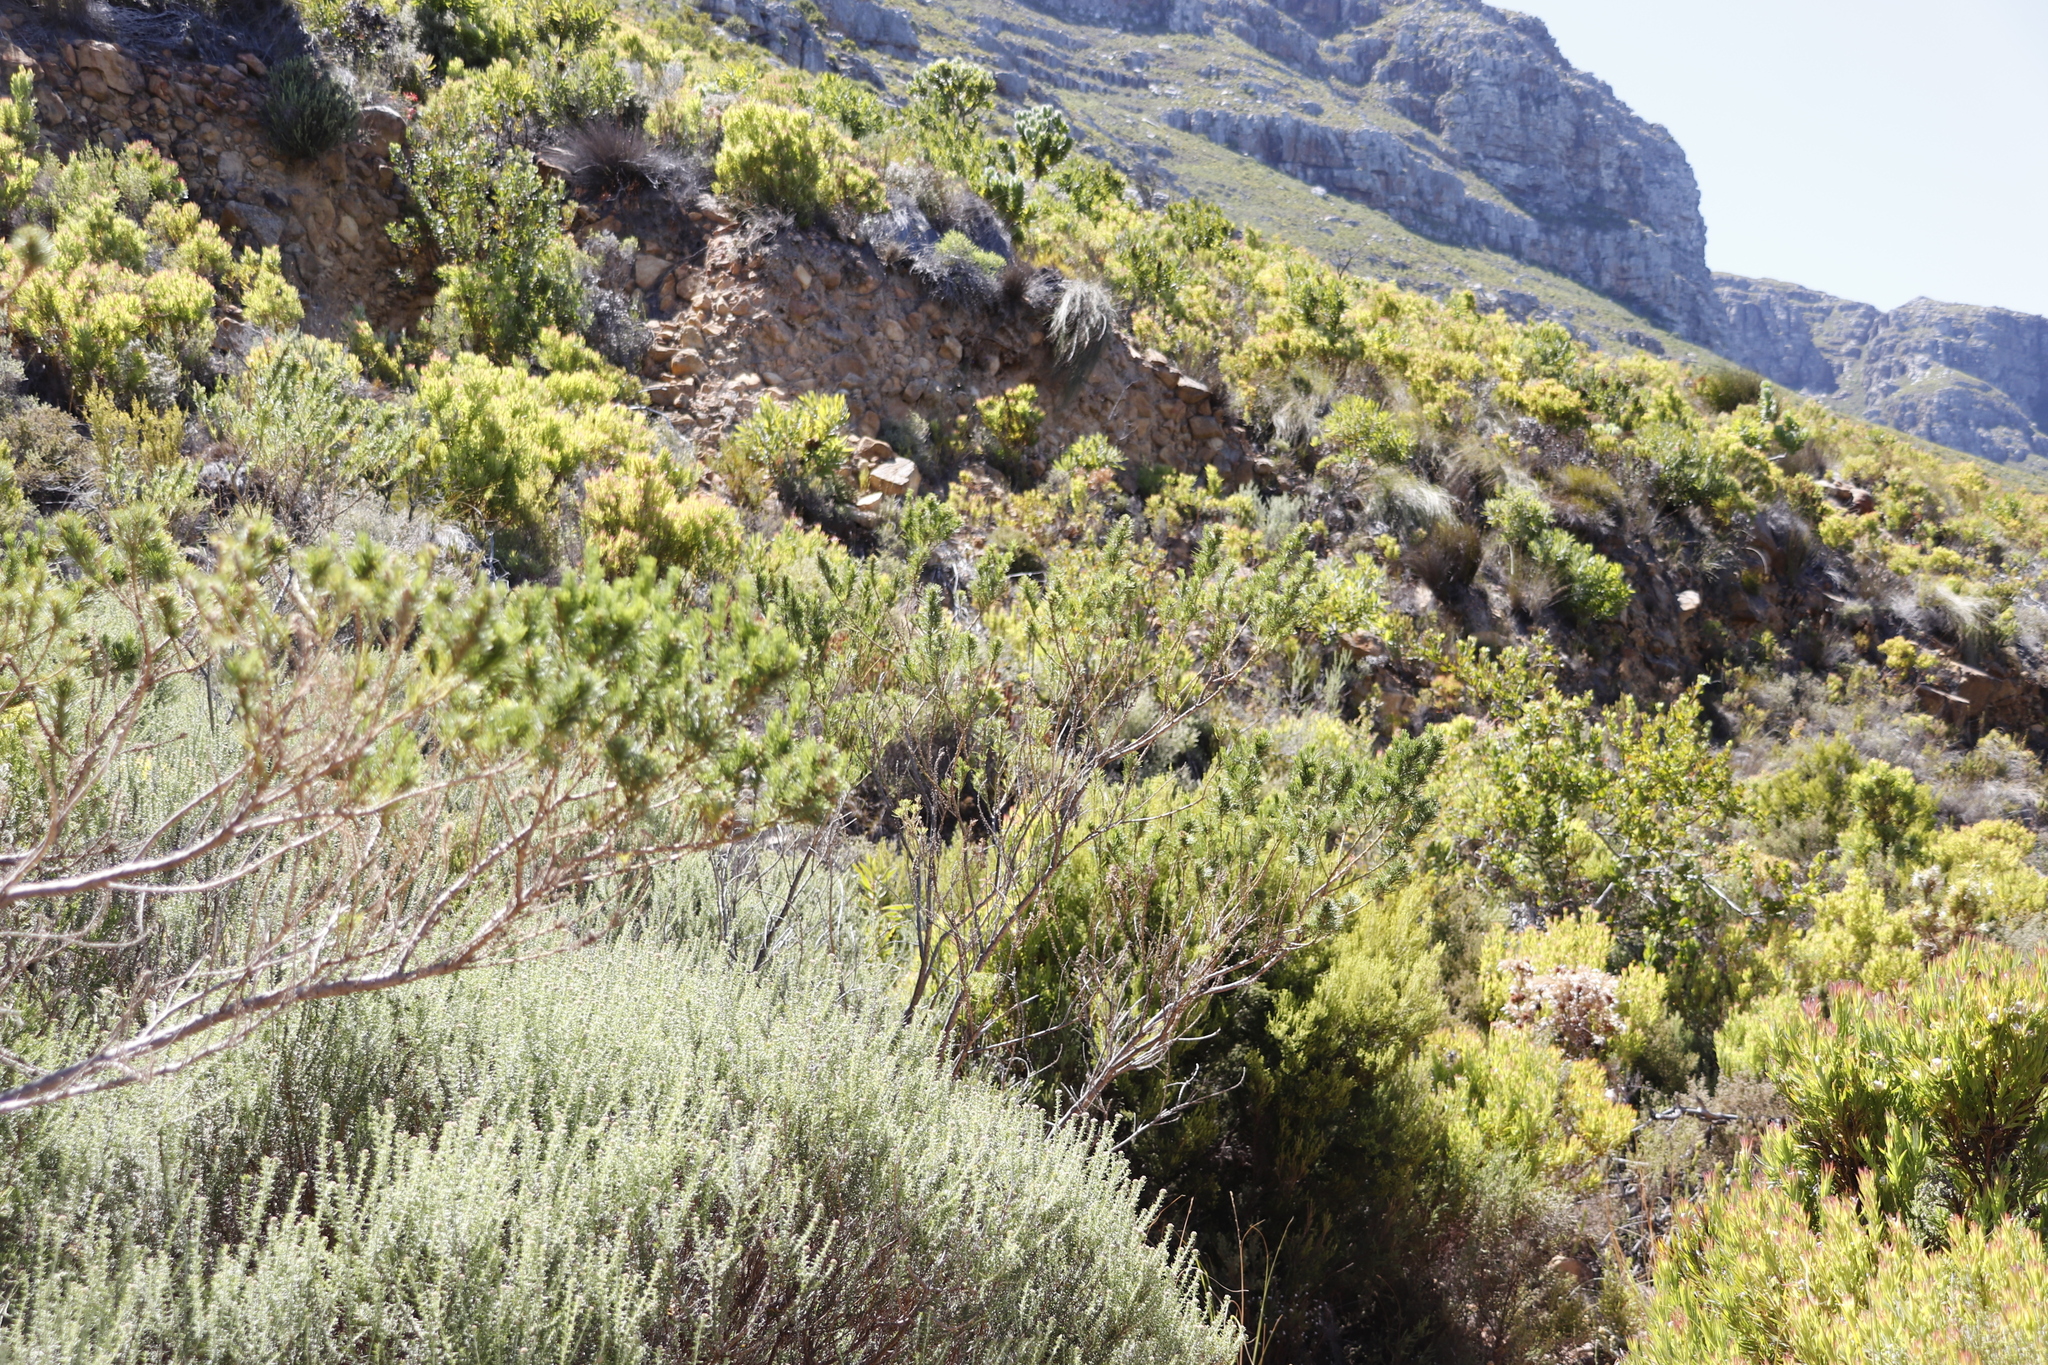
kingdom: Plantae
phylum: Tracheophyta
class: Magnoliopsida
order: Fabales
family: Fabaceae
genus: Psoralea
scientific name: Psoralea pinnata
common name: African scurfpea
